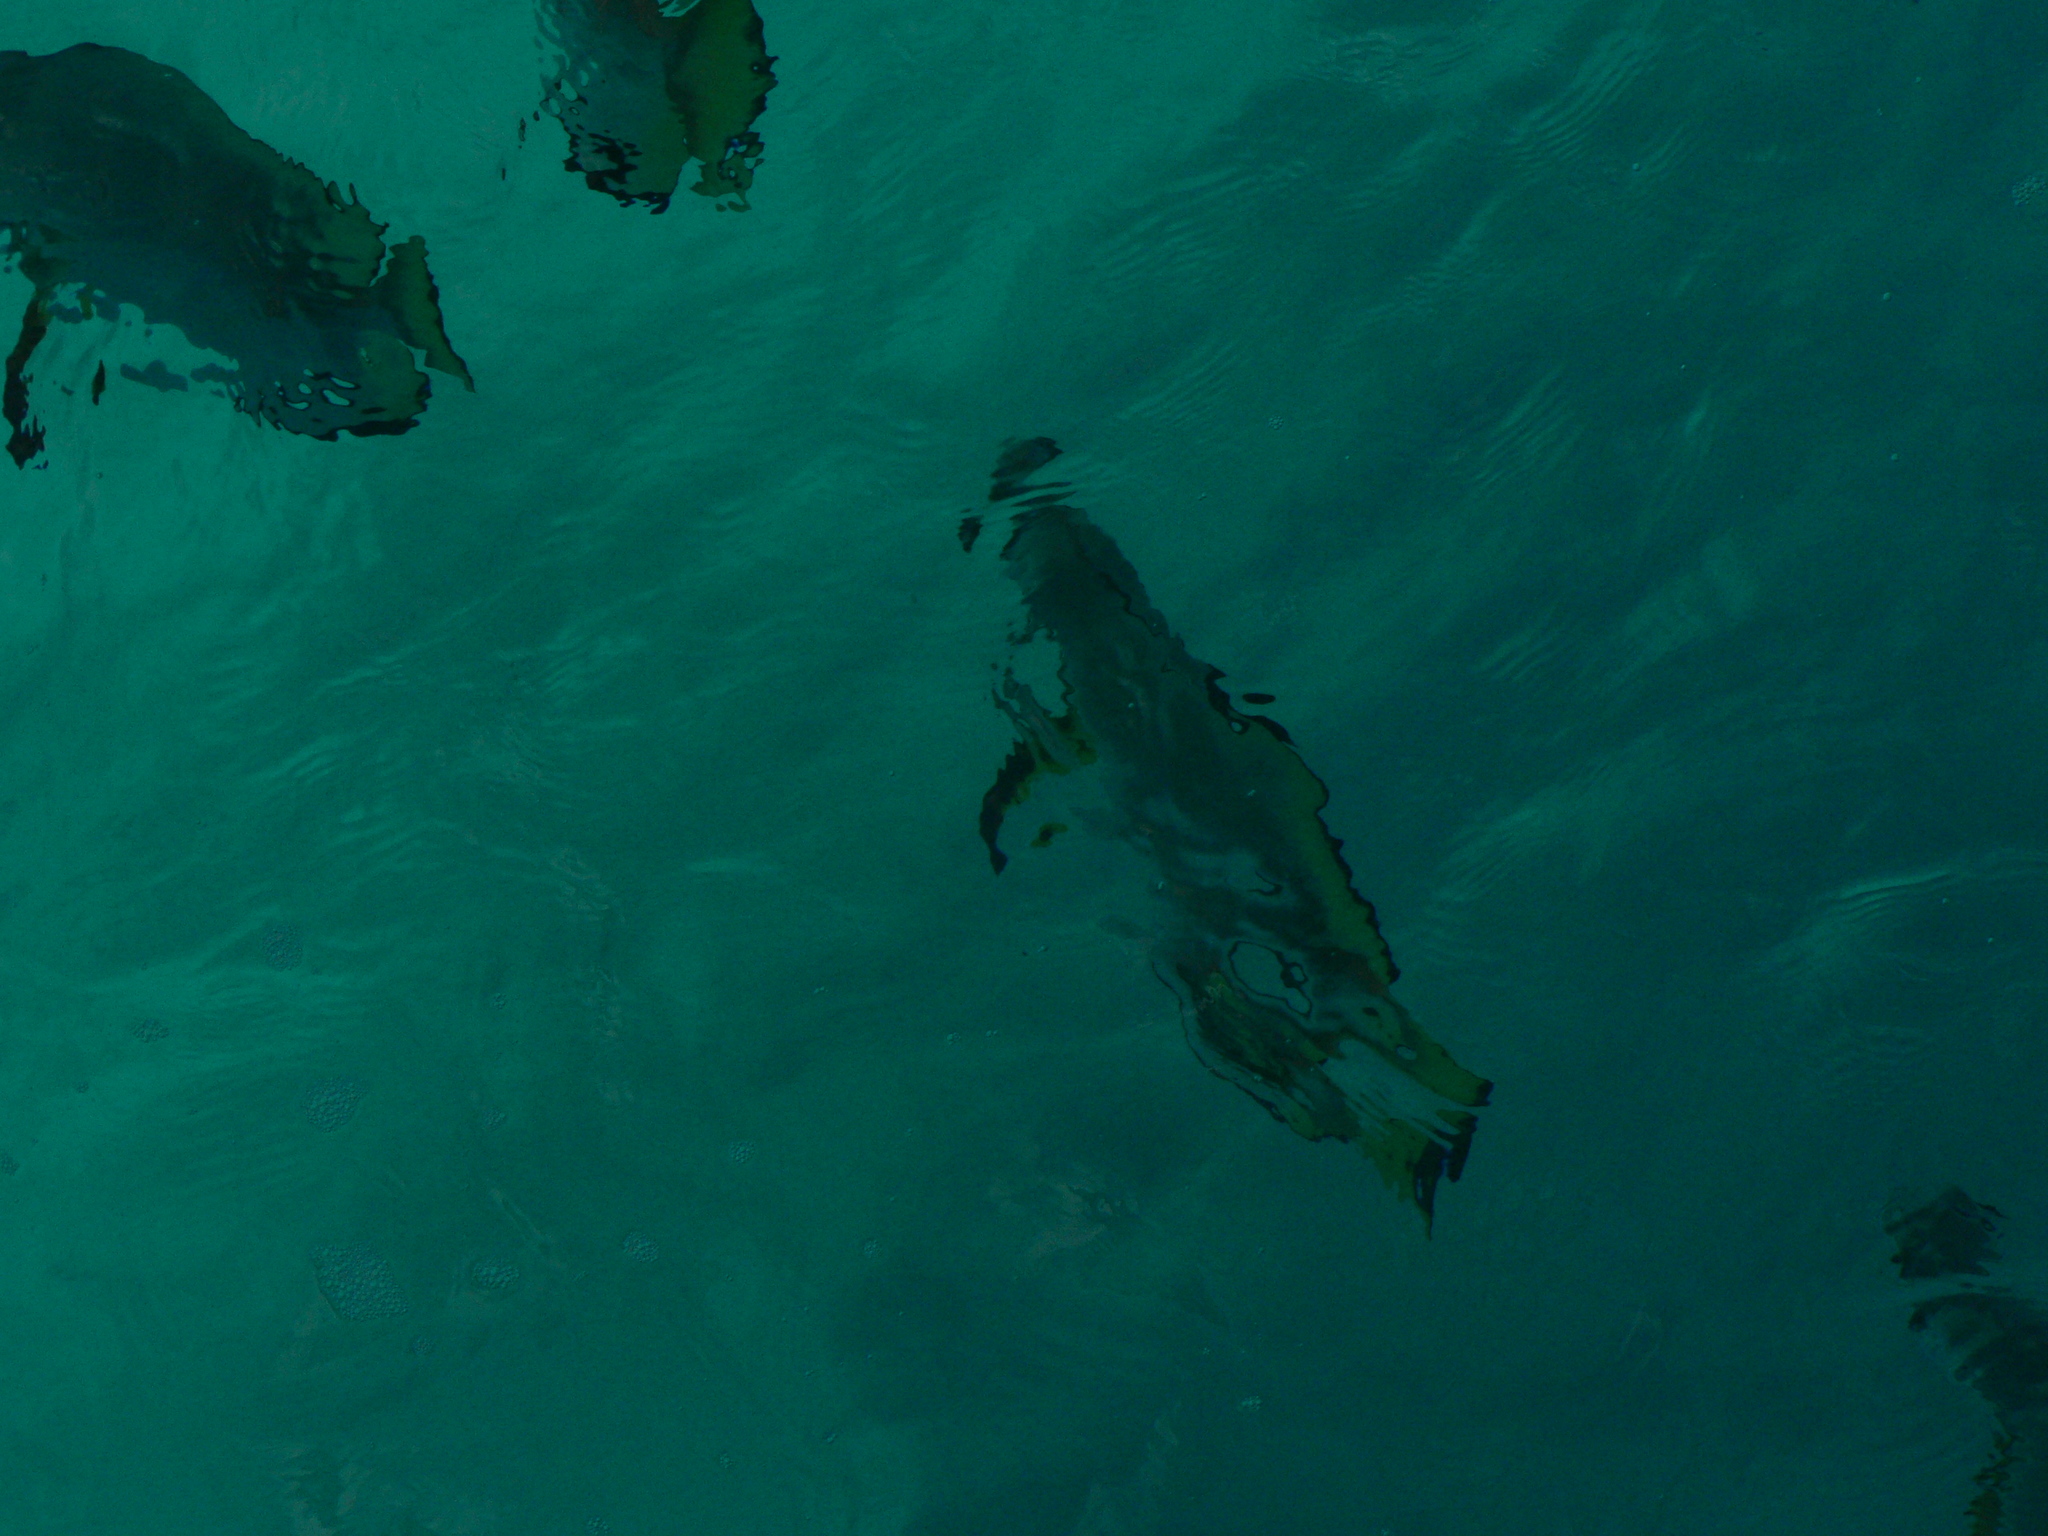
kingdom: Animalia
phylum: Chordata
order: Perciformes
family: Ephippidae
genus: Platax
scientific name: Platax teira
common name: Longfin baitfish
